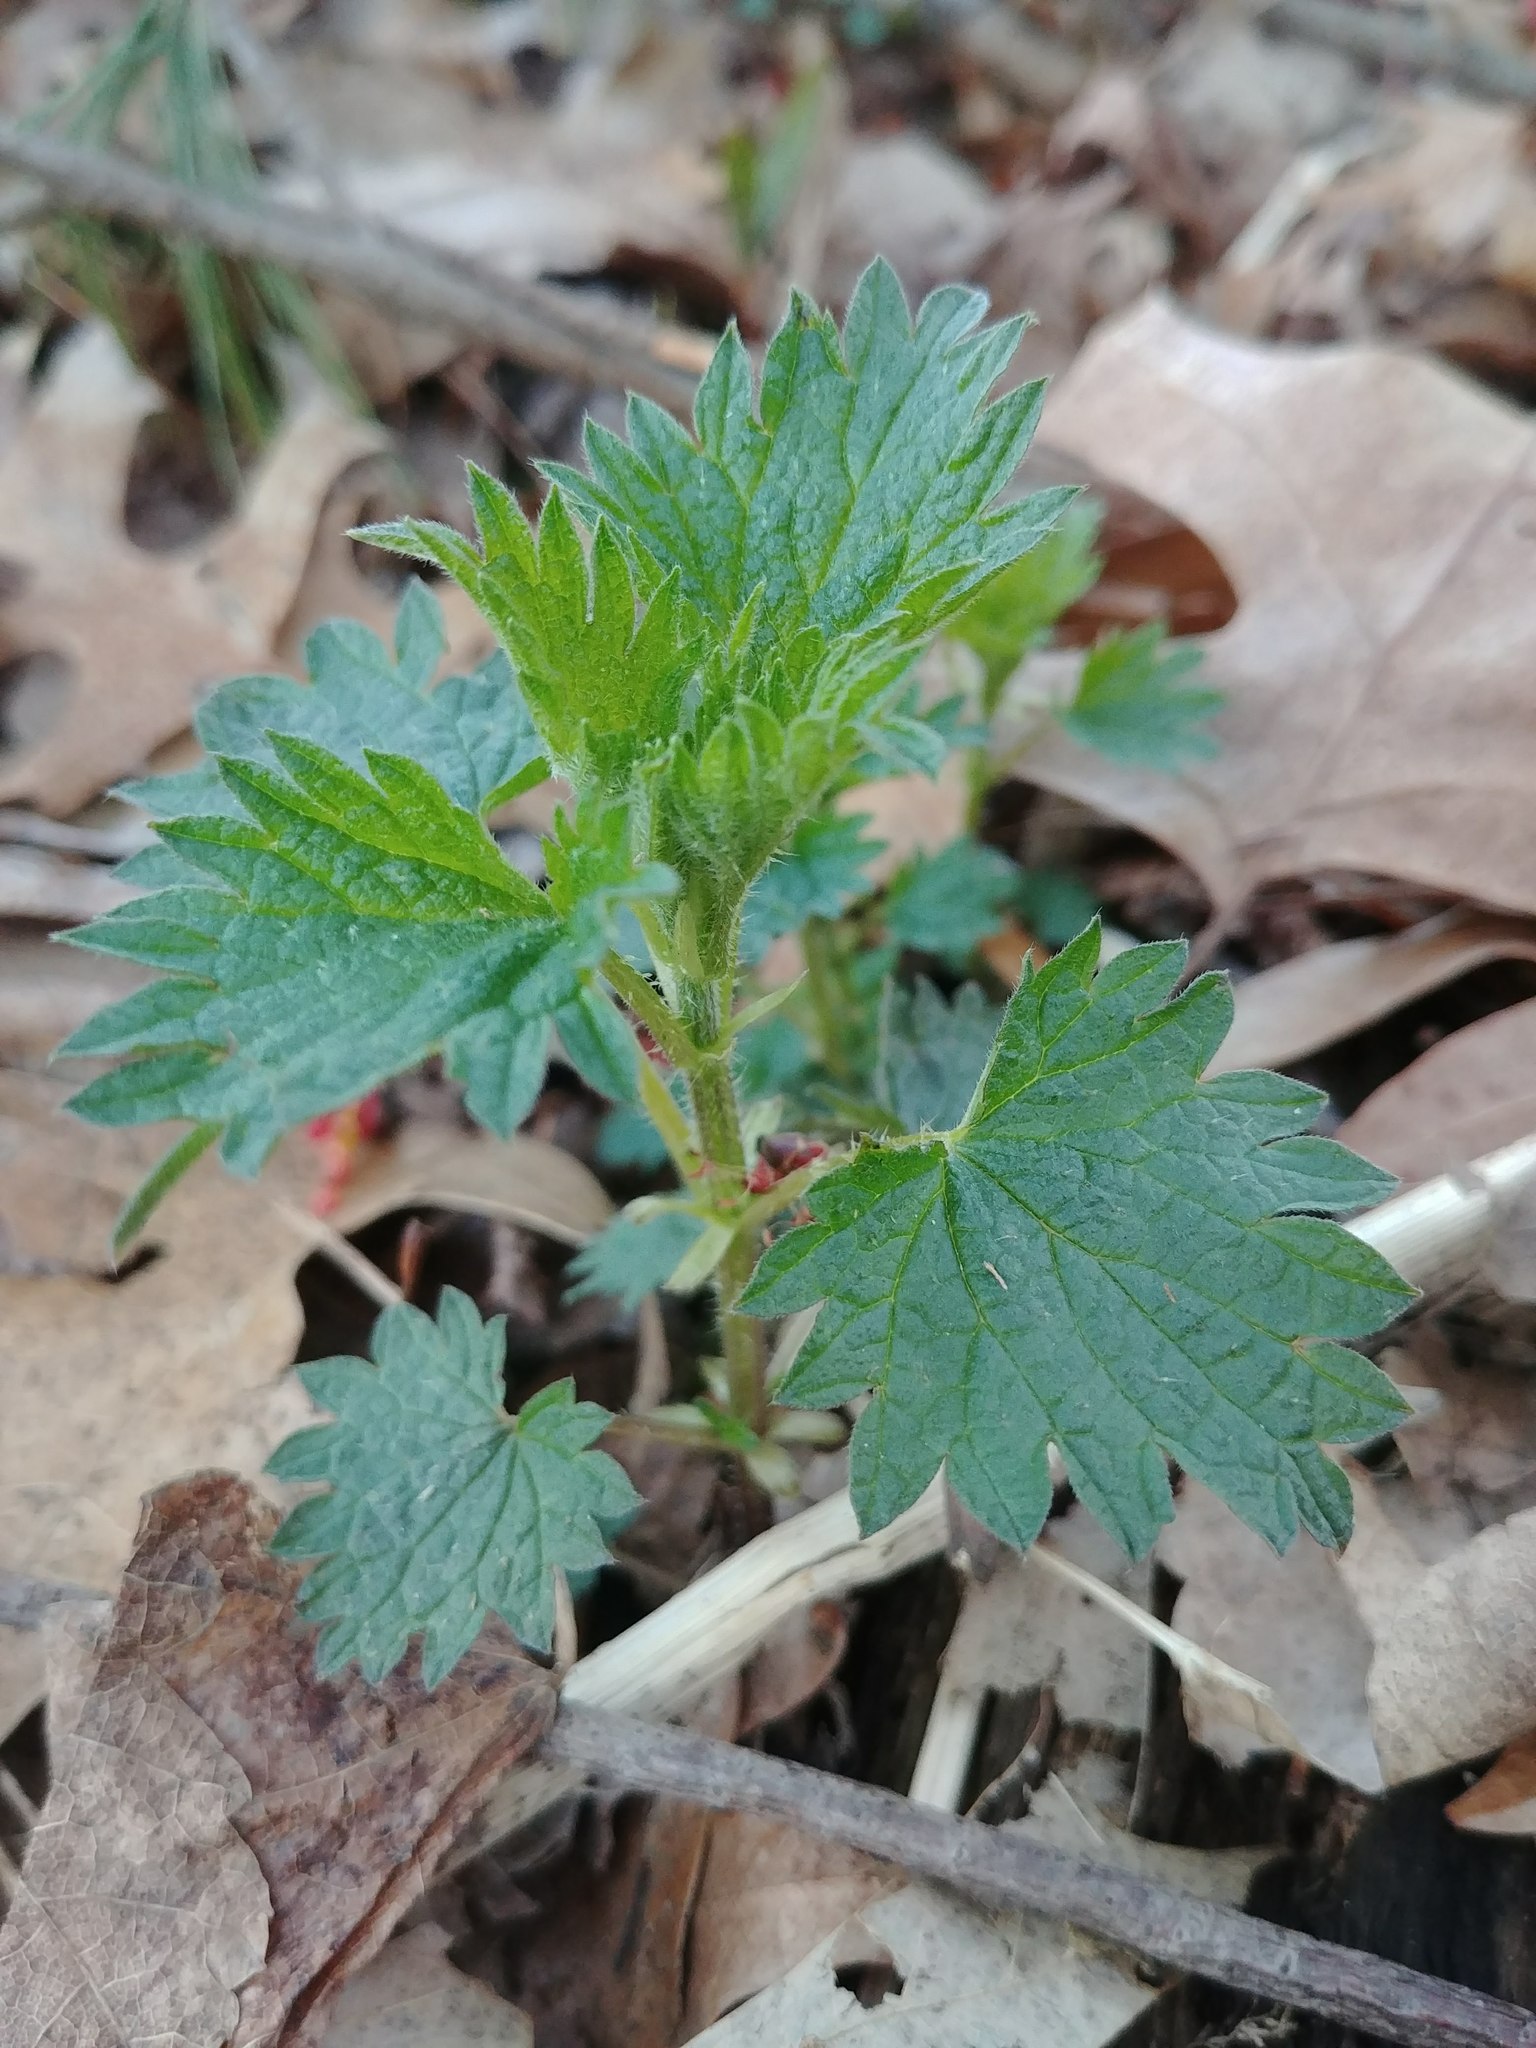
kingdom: Plantae
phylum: Tracheophyta
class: Magnoliopsida
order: Rosales
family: Urticaceae
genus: Urtica
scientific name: Urtica dioica
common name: Common nettle
